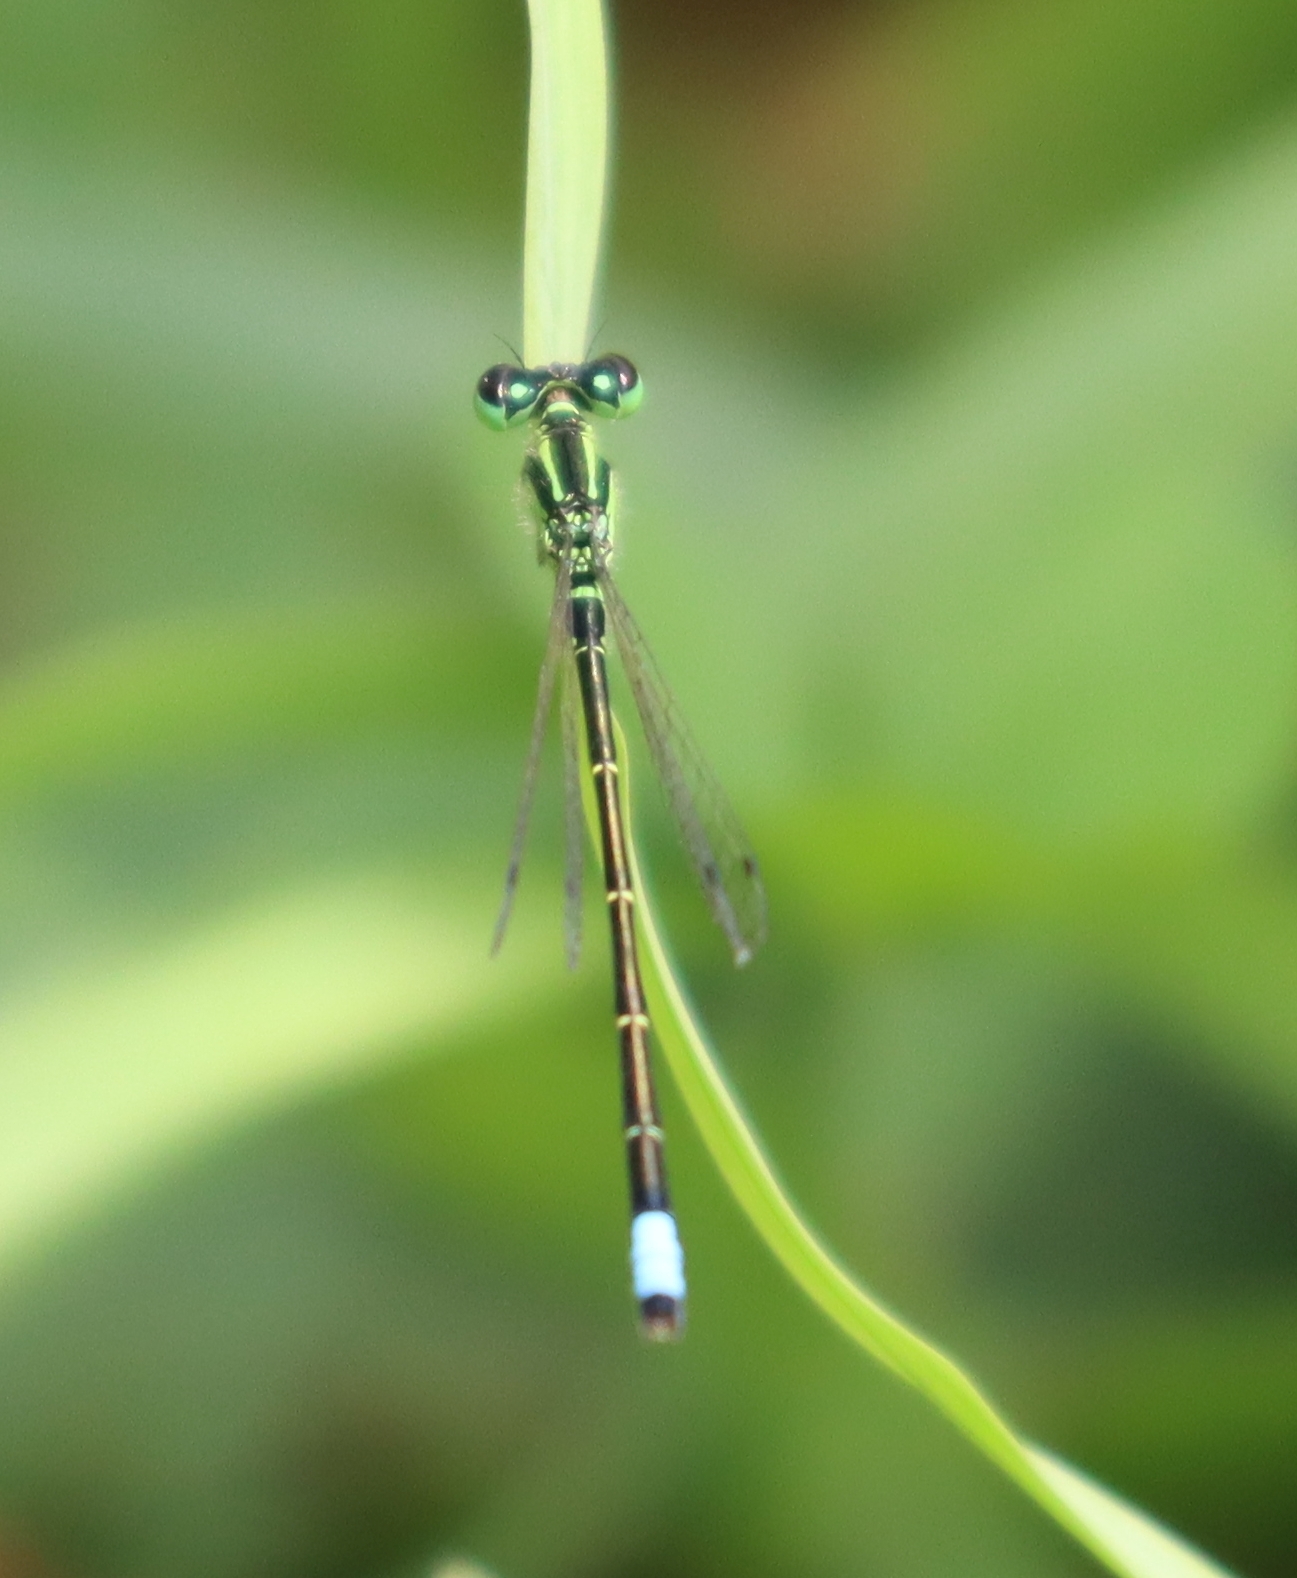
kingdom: Animalia
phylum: Arthropoda
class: Insecta
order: Odonata
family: Coenagrionidae
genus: Ischnura
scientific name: Ischnura verticalis
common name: Eastern forktail
